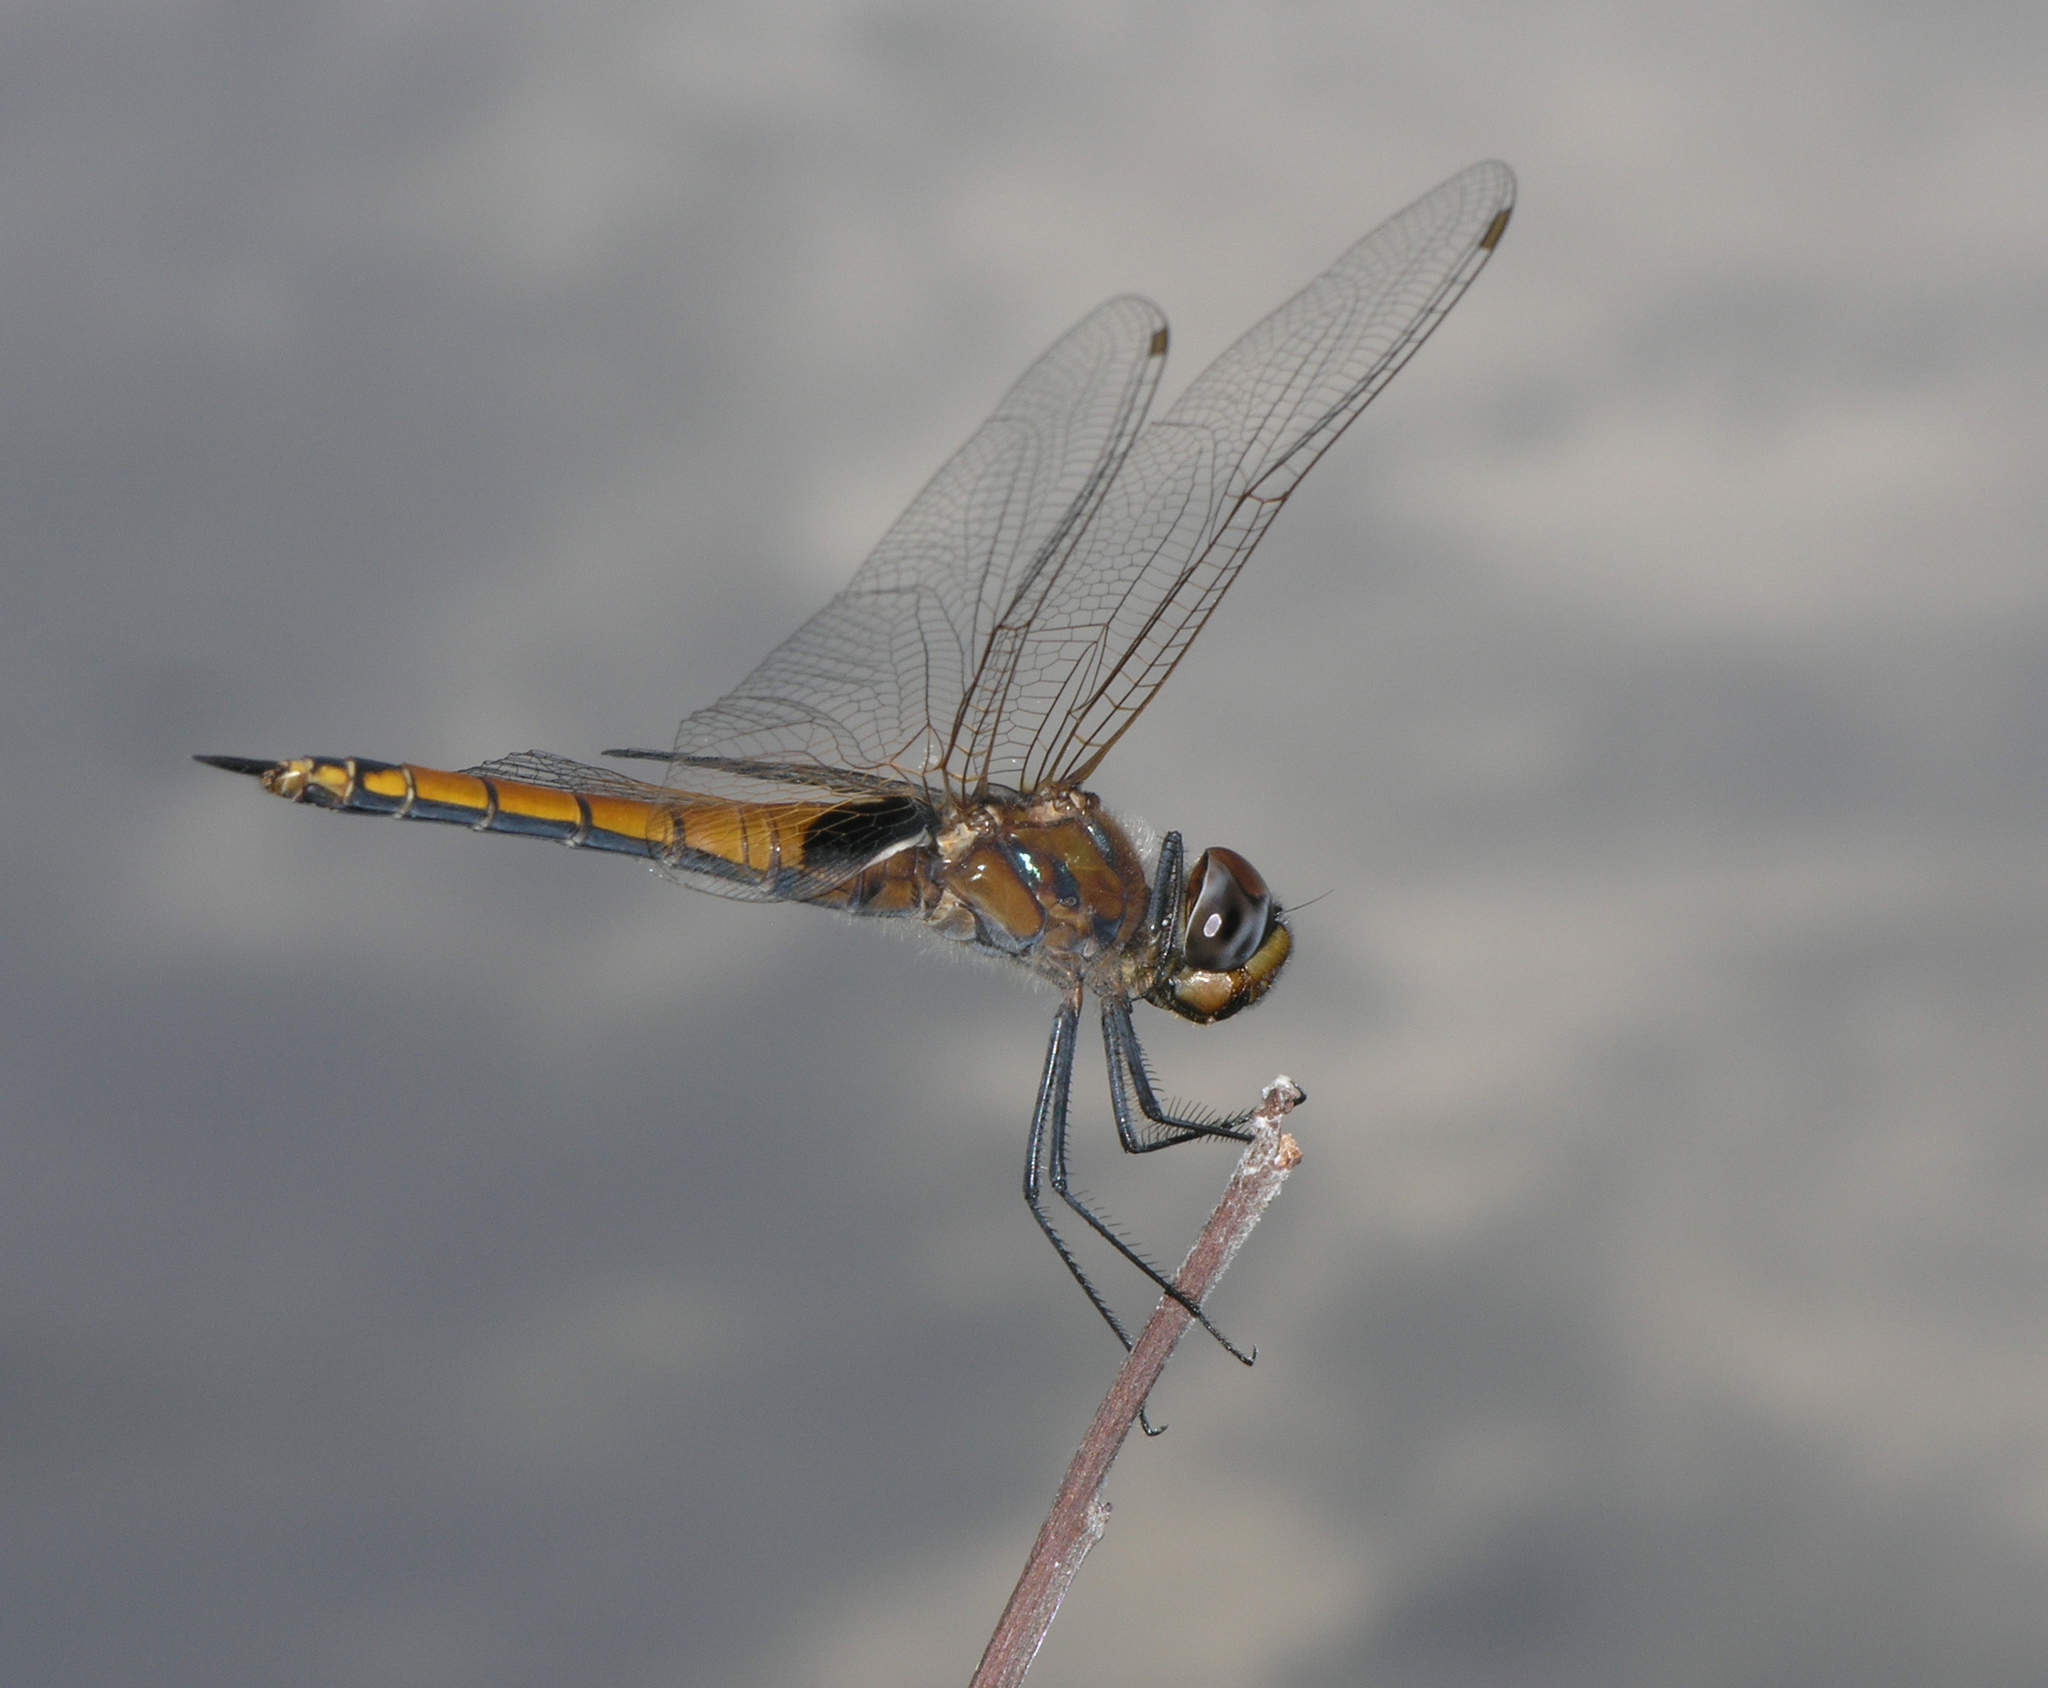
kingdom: Animalia
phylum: Arthropoda
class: Insecta
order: Odonata
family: Libellulidae
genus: Tramea
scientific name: Tramea transmarina
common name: Red glider dragonfly
